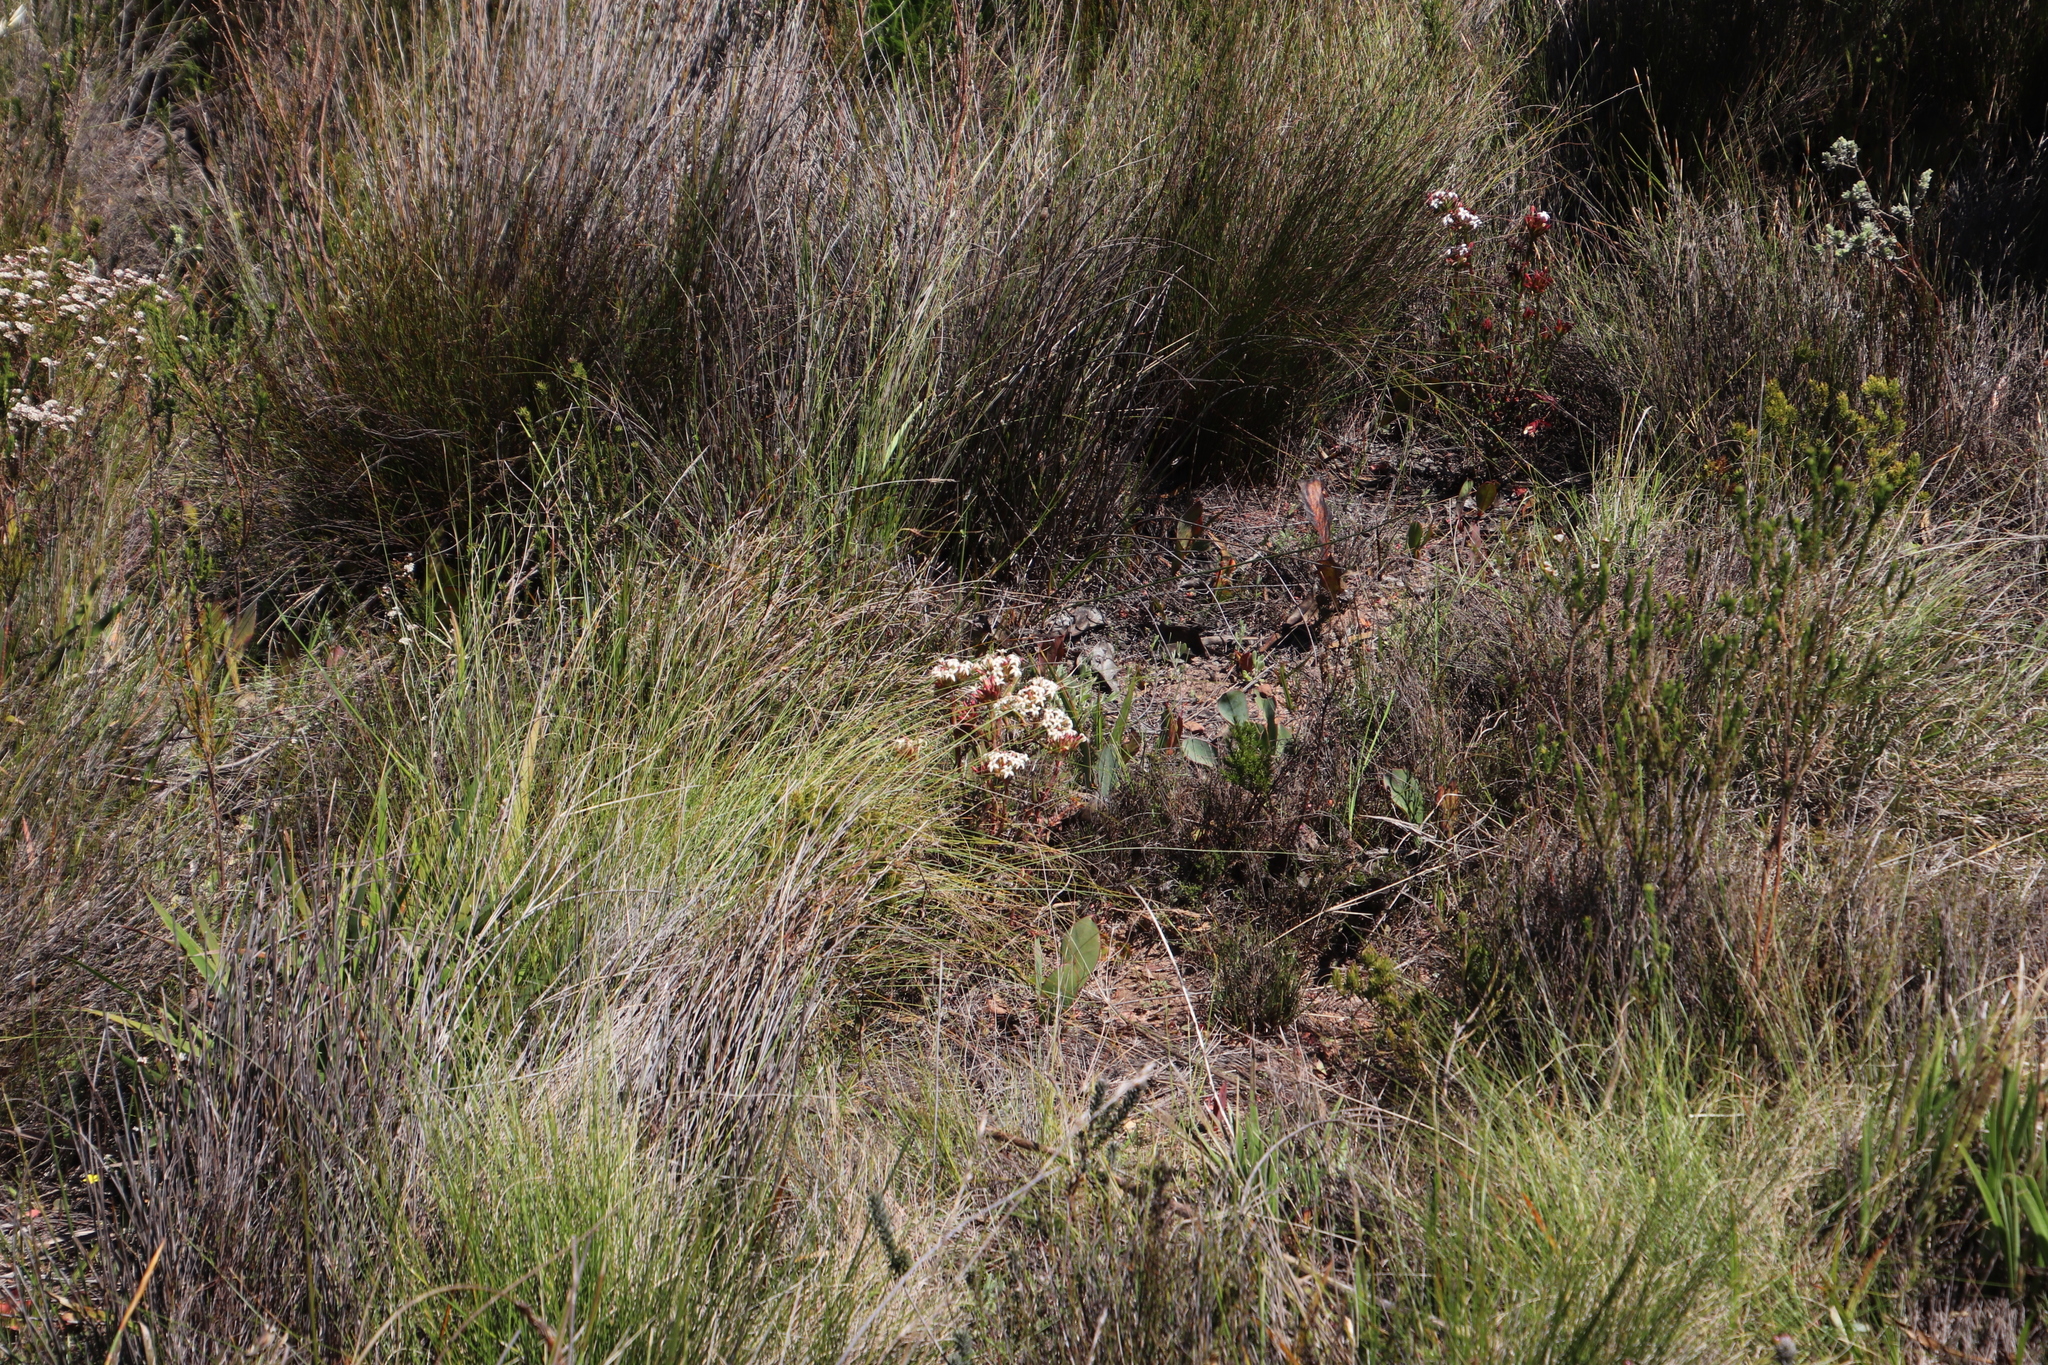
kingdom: Plantae
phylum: Tracheophyta
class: Magnoliopsida
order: Saxifragales
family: Crassulaceae
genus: Crassula
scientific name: Crassula fascicularis
